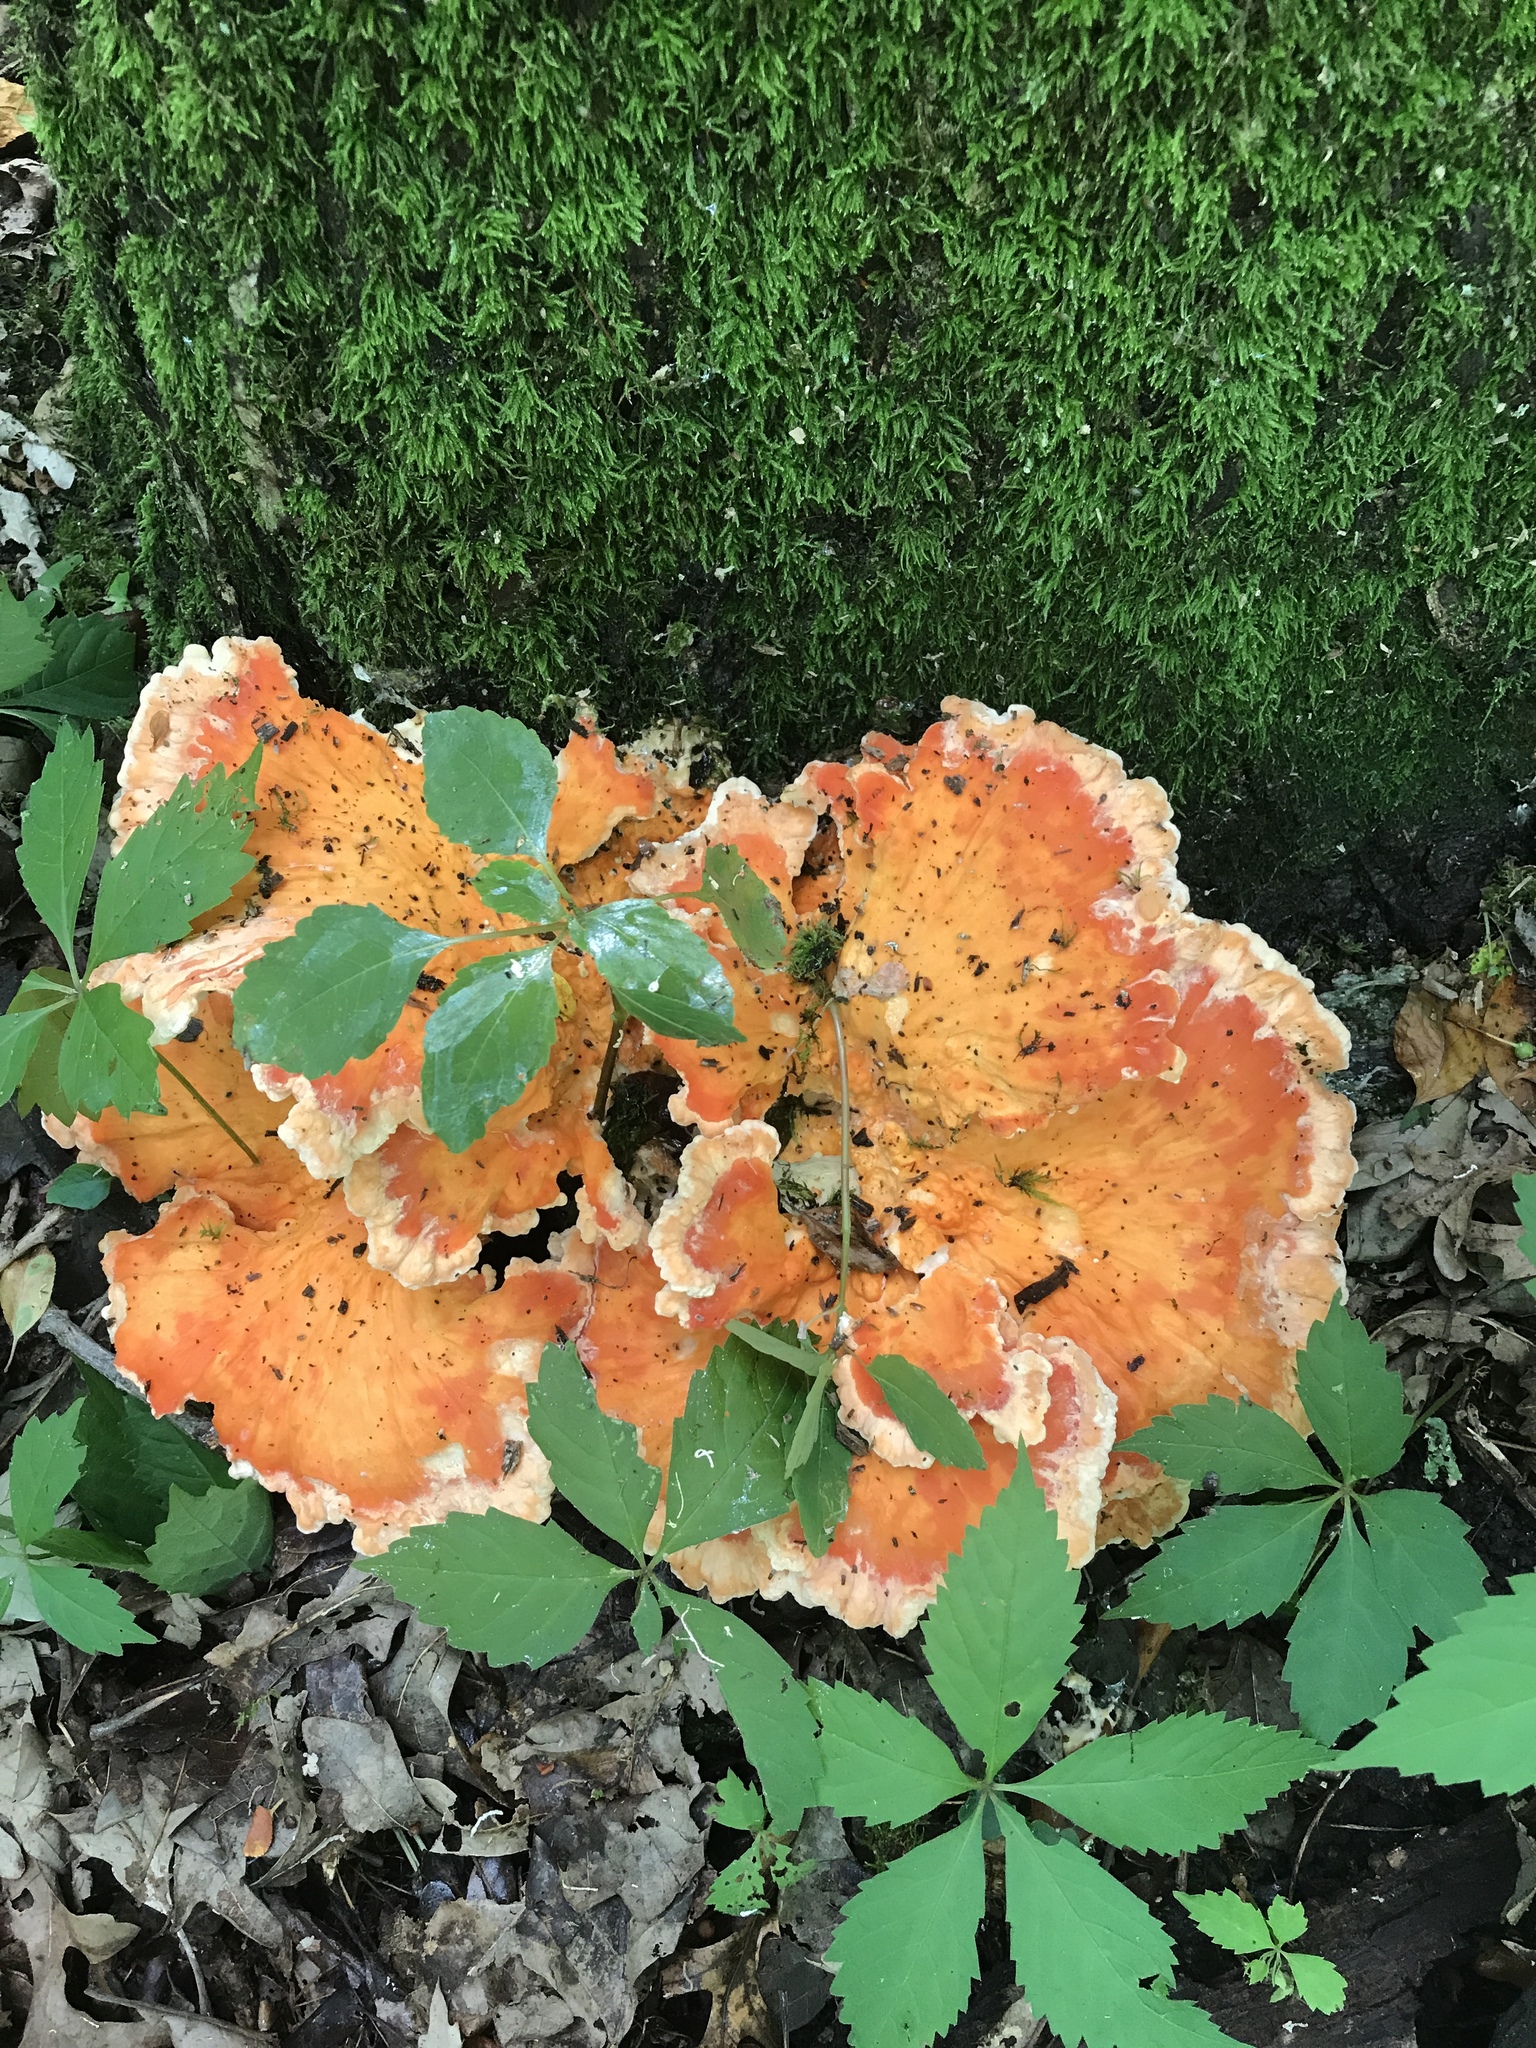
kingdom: Fungi
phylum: Basidiomycota
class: Agaricomycetes
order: Polyporales
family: Laetiporaceae
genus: Laetiporus
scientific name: Laetiporus sulphureus
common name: Chicken of the woods
